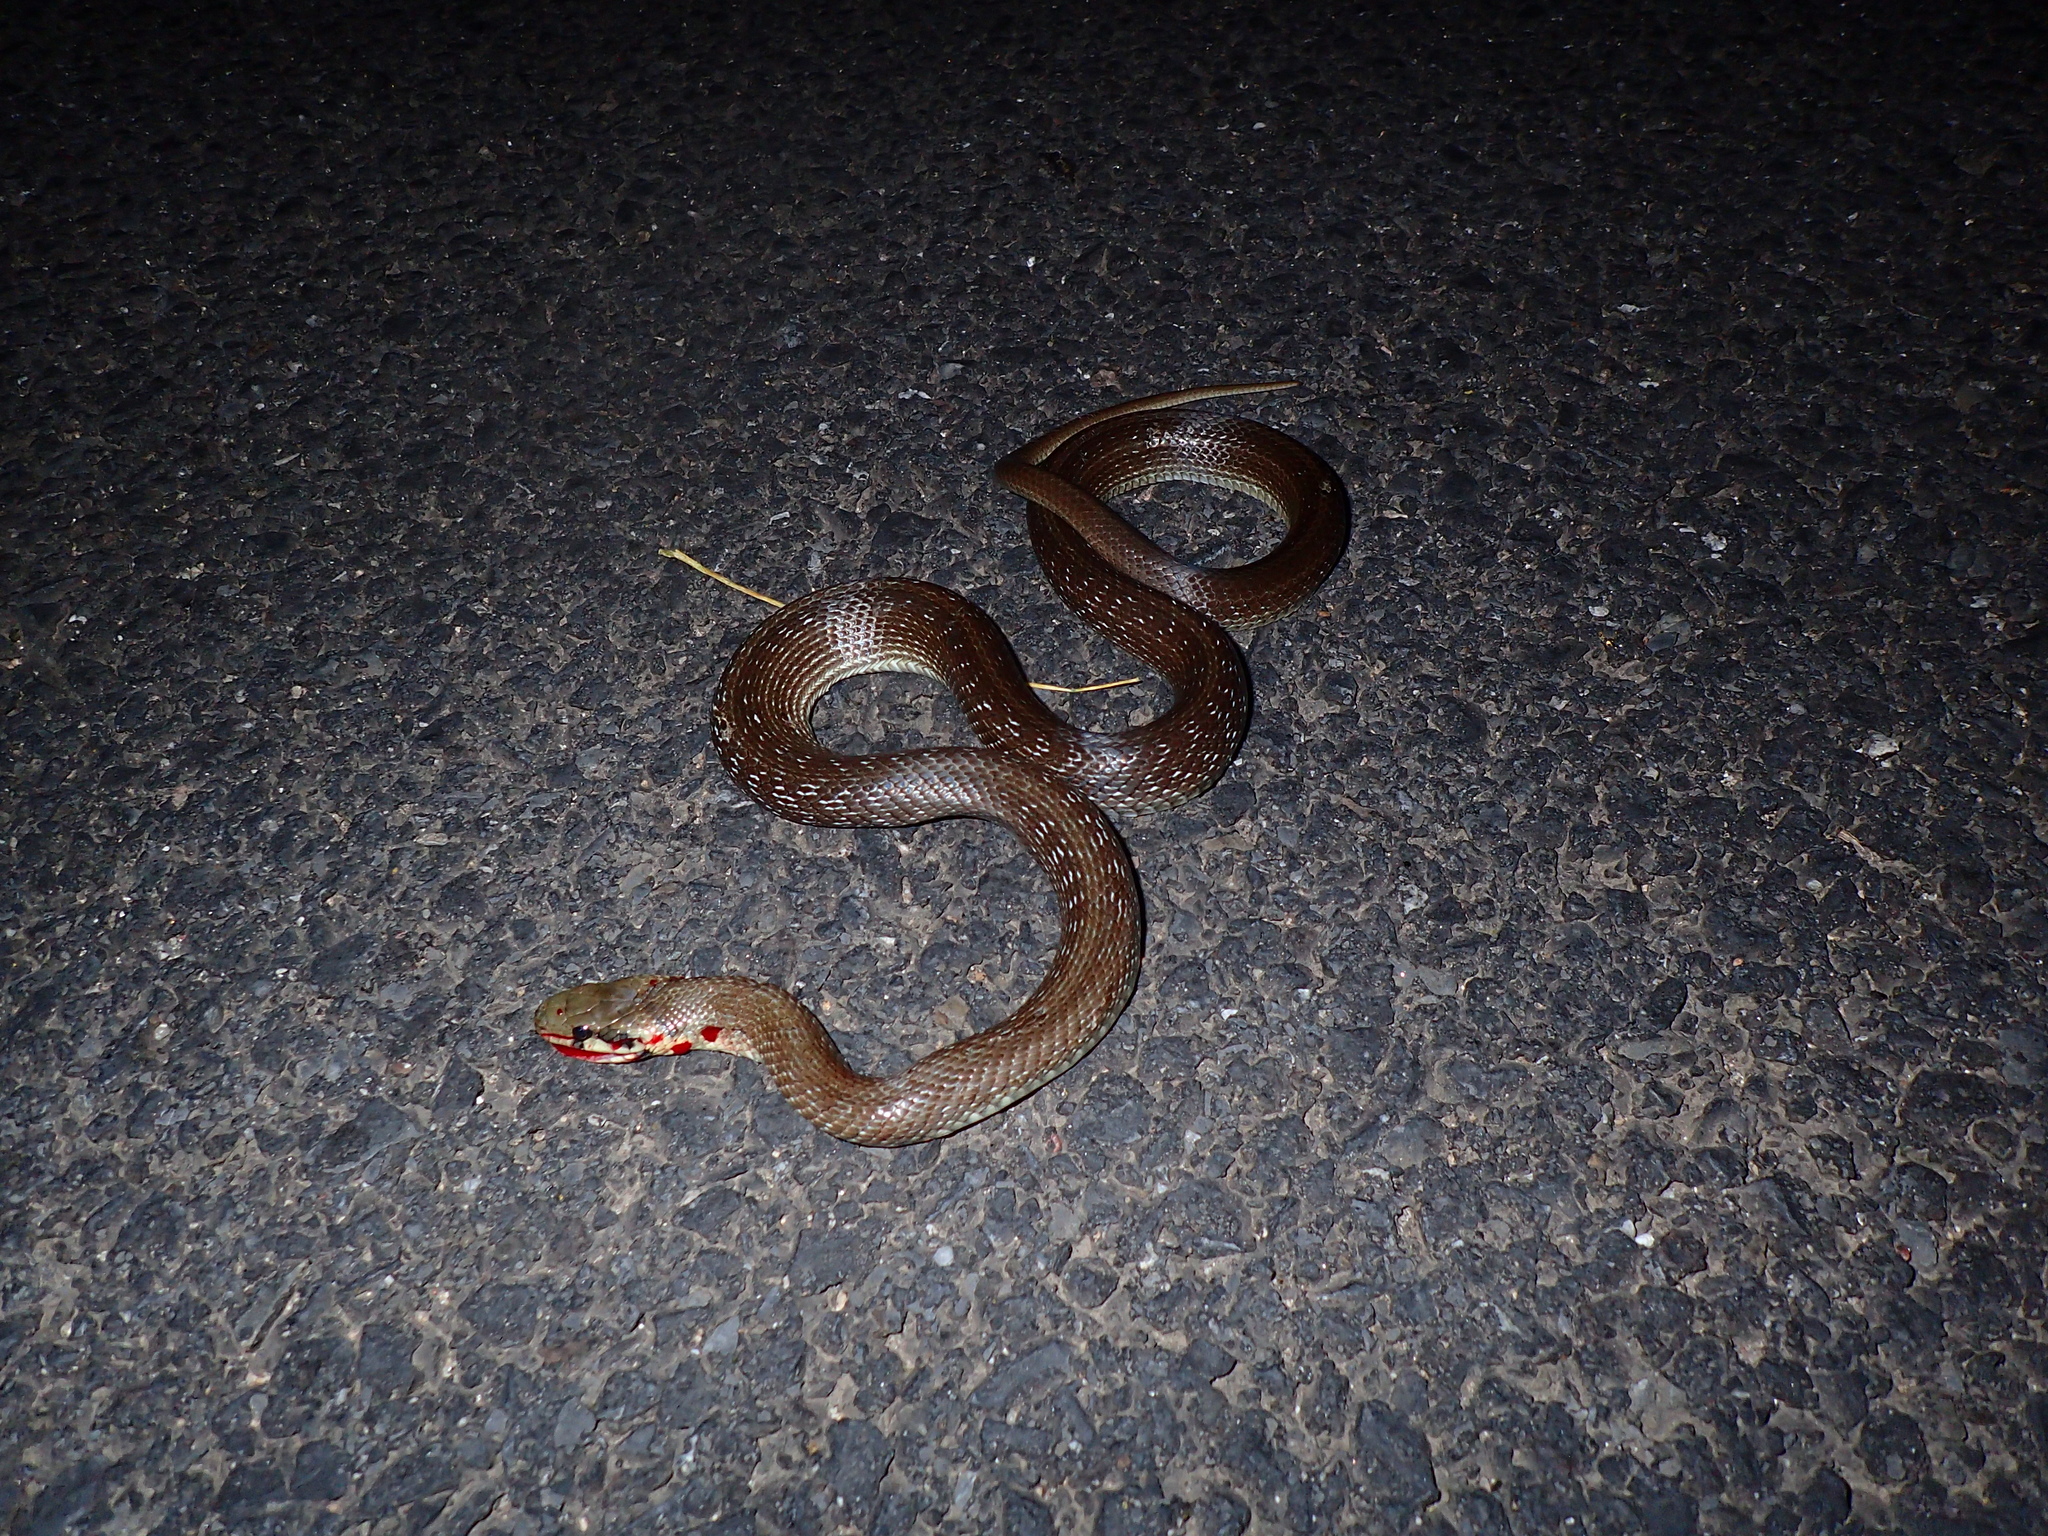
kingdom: Animalia
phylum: Chordata
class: Squamata
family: Colubridae
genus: Zamenis
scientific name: Zamenis longissimus
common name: Aesculapean snake
